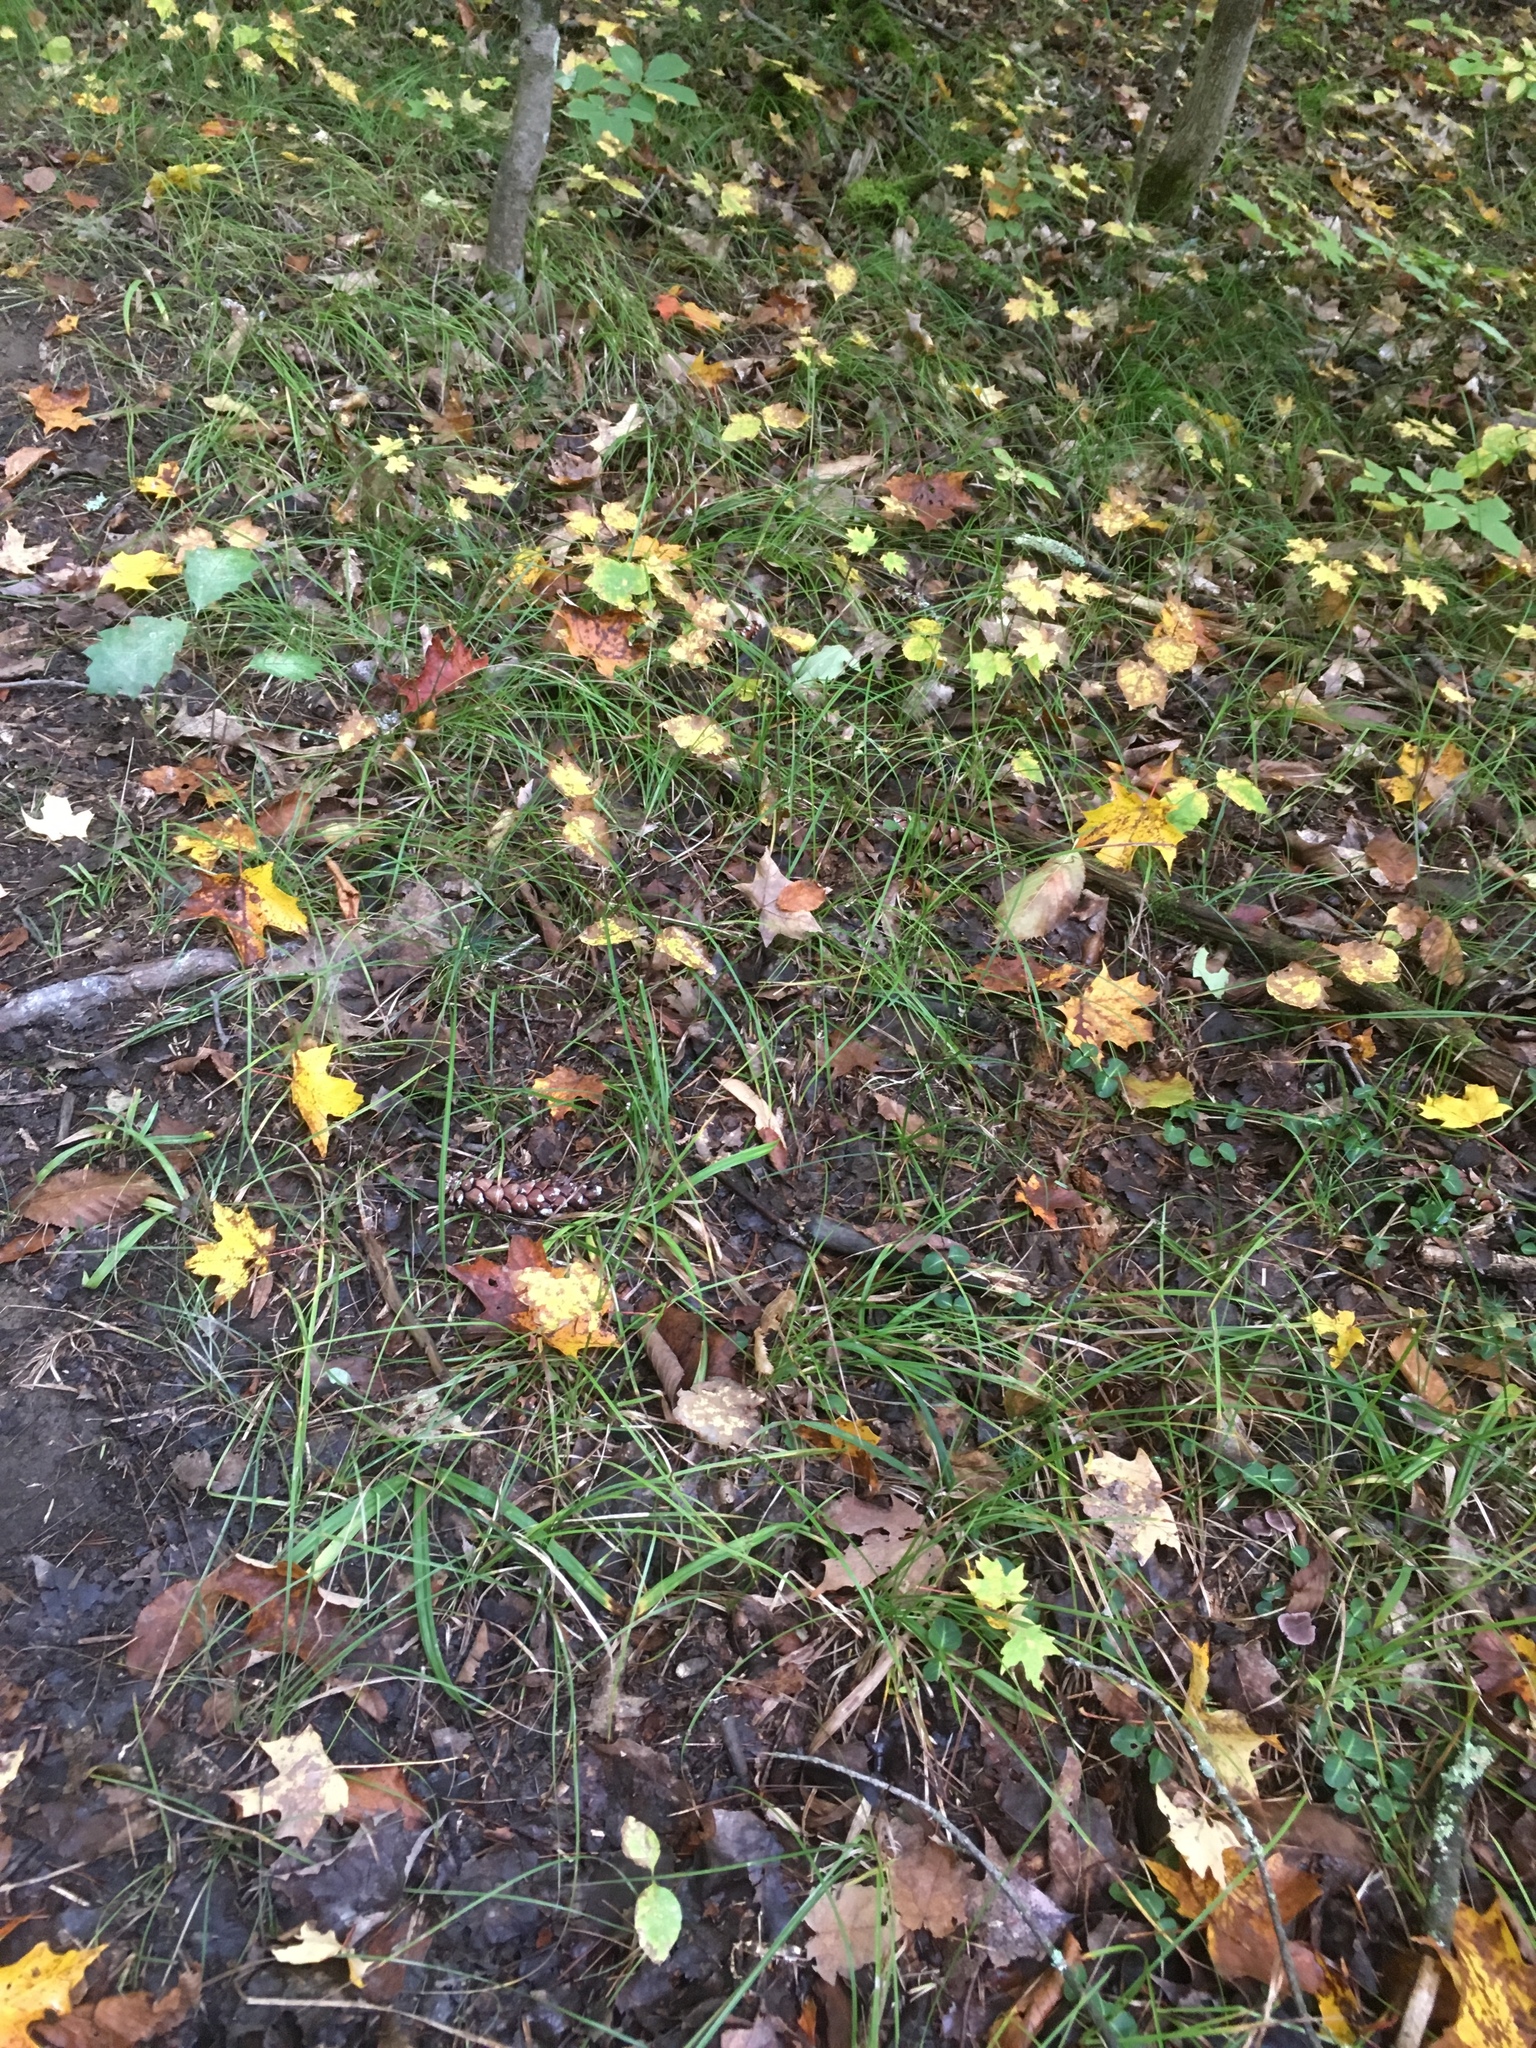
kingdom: Plantae
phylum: Tracheophyta
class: Liliopsida
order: Poales
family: Cyperaceae
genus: Carex
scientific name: Carex pensylvanica
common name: Common oak sedge
